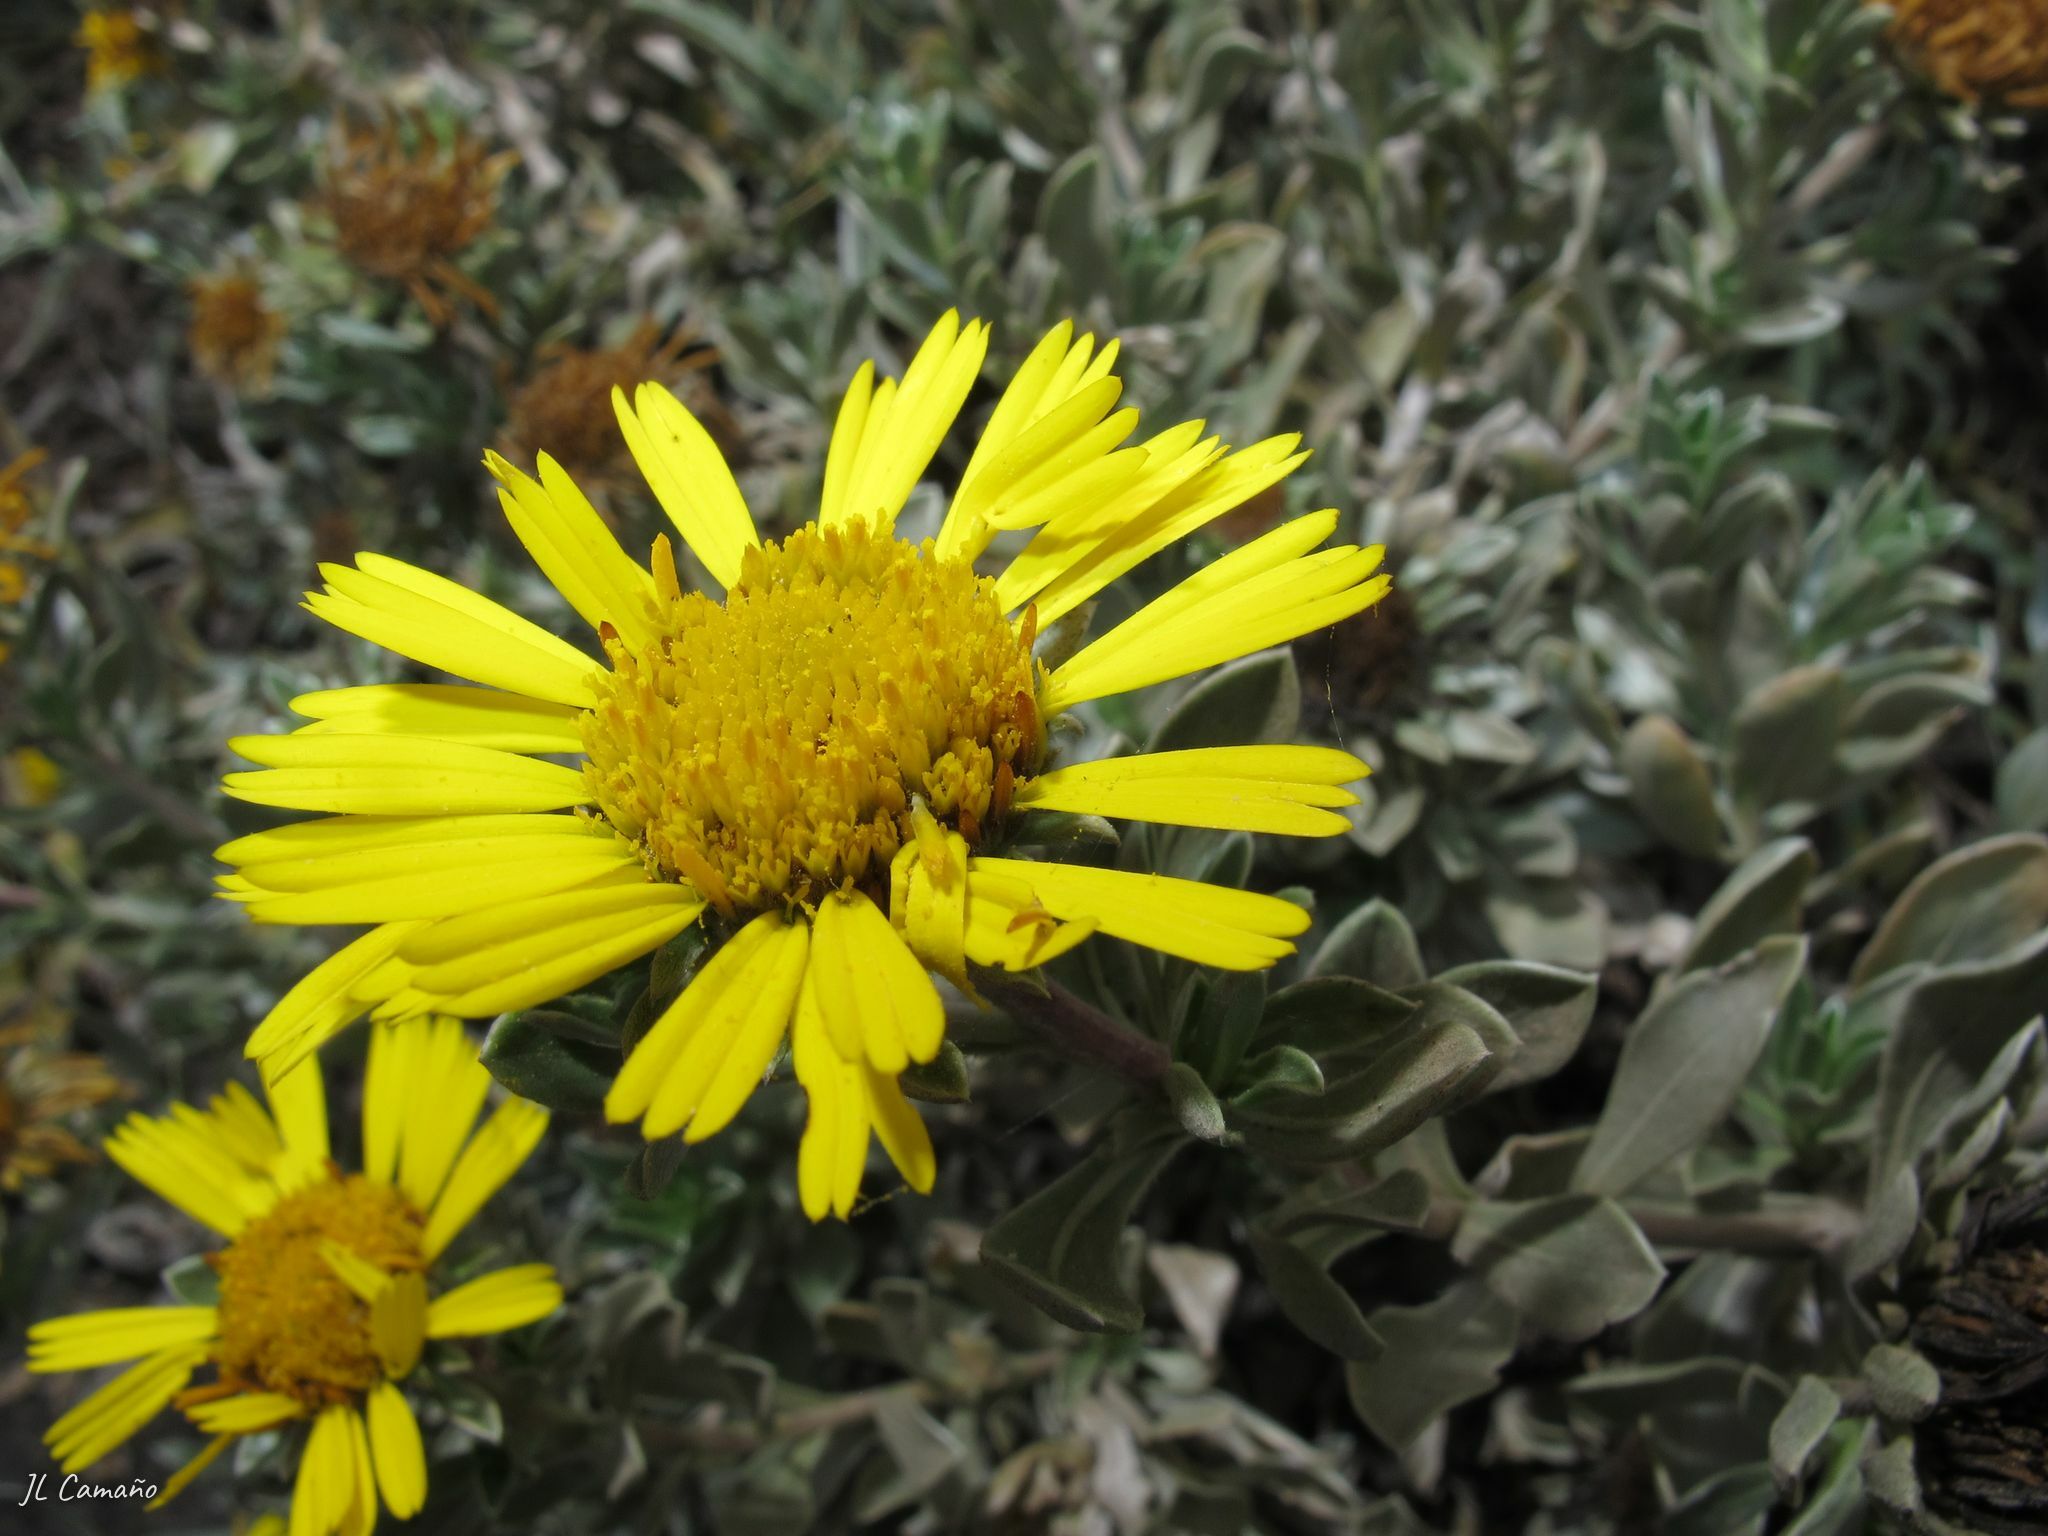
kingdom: Plantae
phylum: Tracheophyta
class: Magnoliopsida
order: Asterales
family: Asteraceae
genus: Asteriscus
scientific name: Asteriscus intermedius
